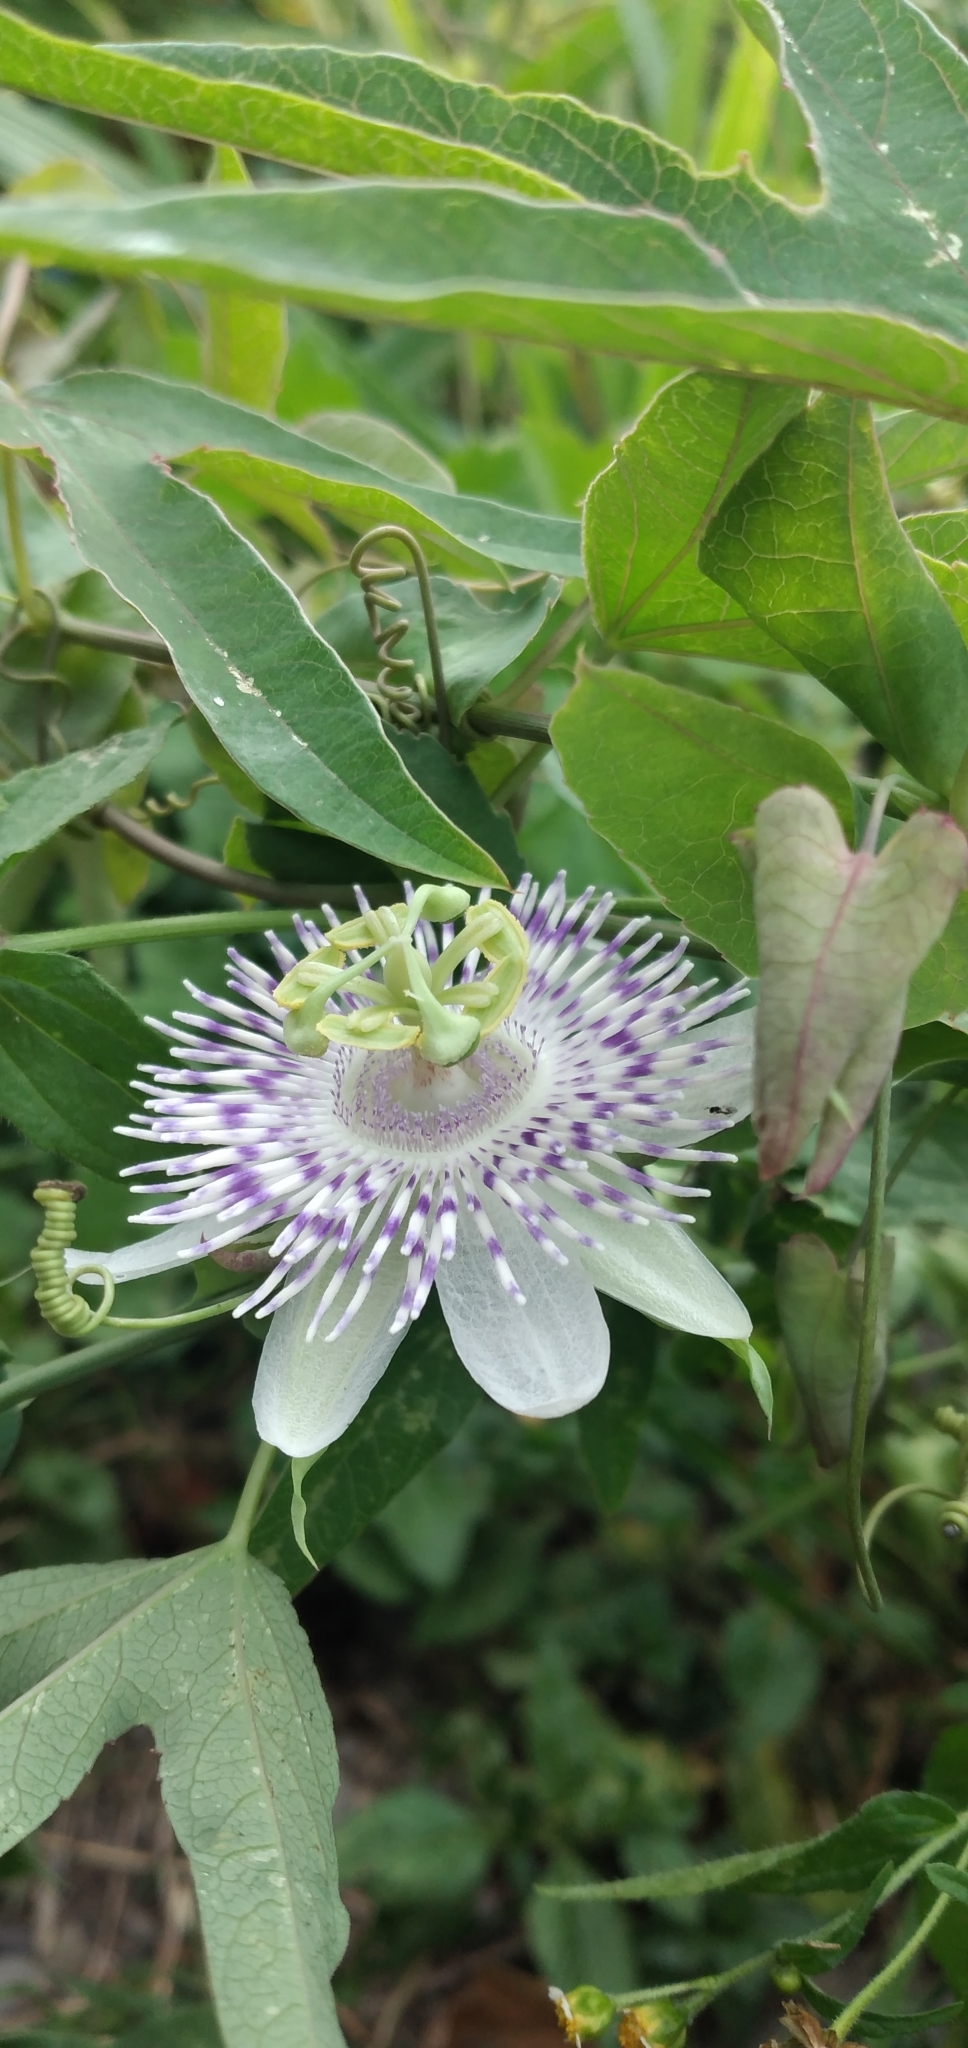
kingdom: Plantae
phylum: Tracheophyta
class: Magnoliopsida
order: Malpighiales
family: Passifloraceae
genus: Passiflora
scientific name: Passiflora tucumanensis
